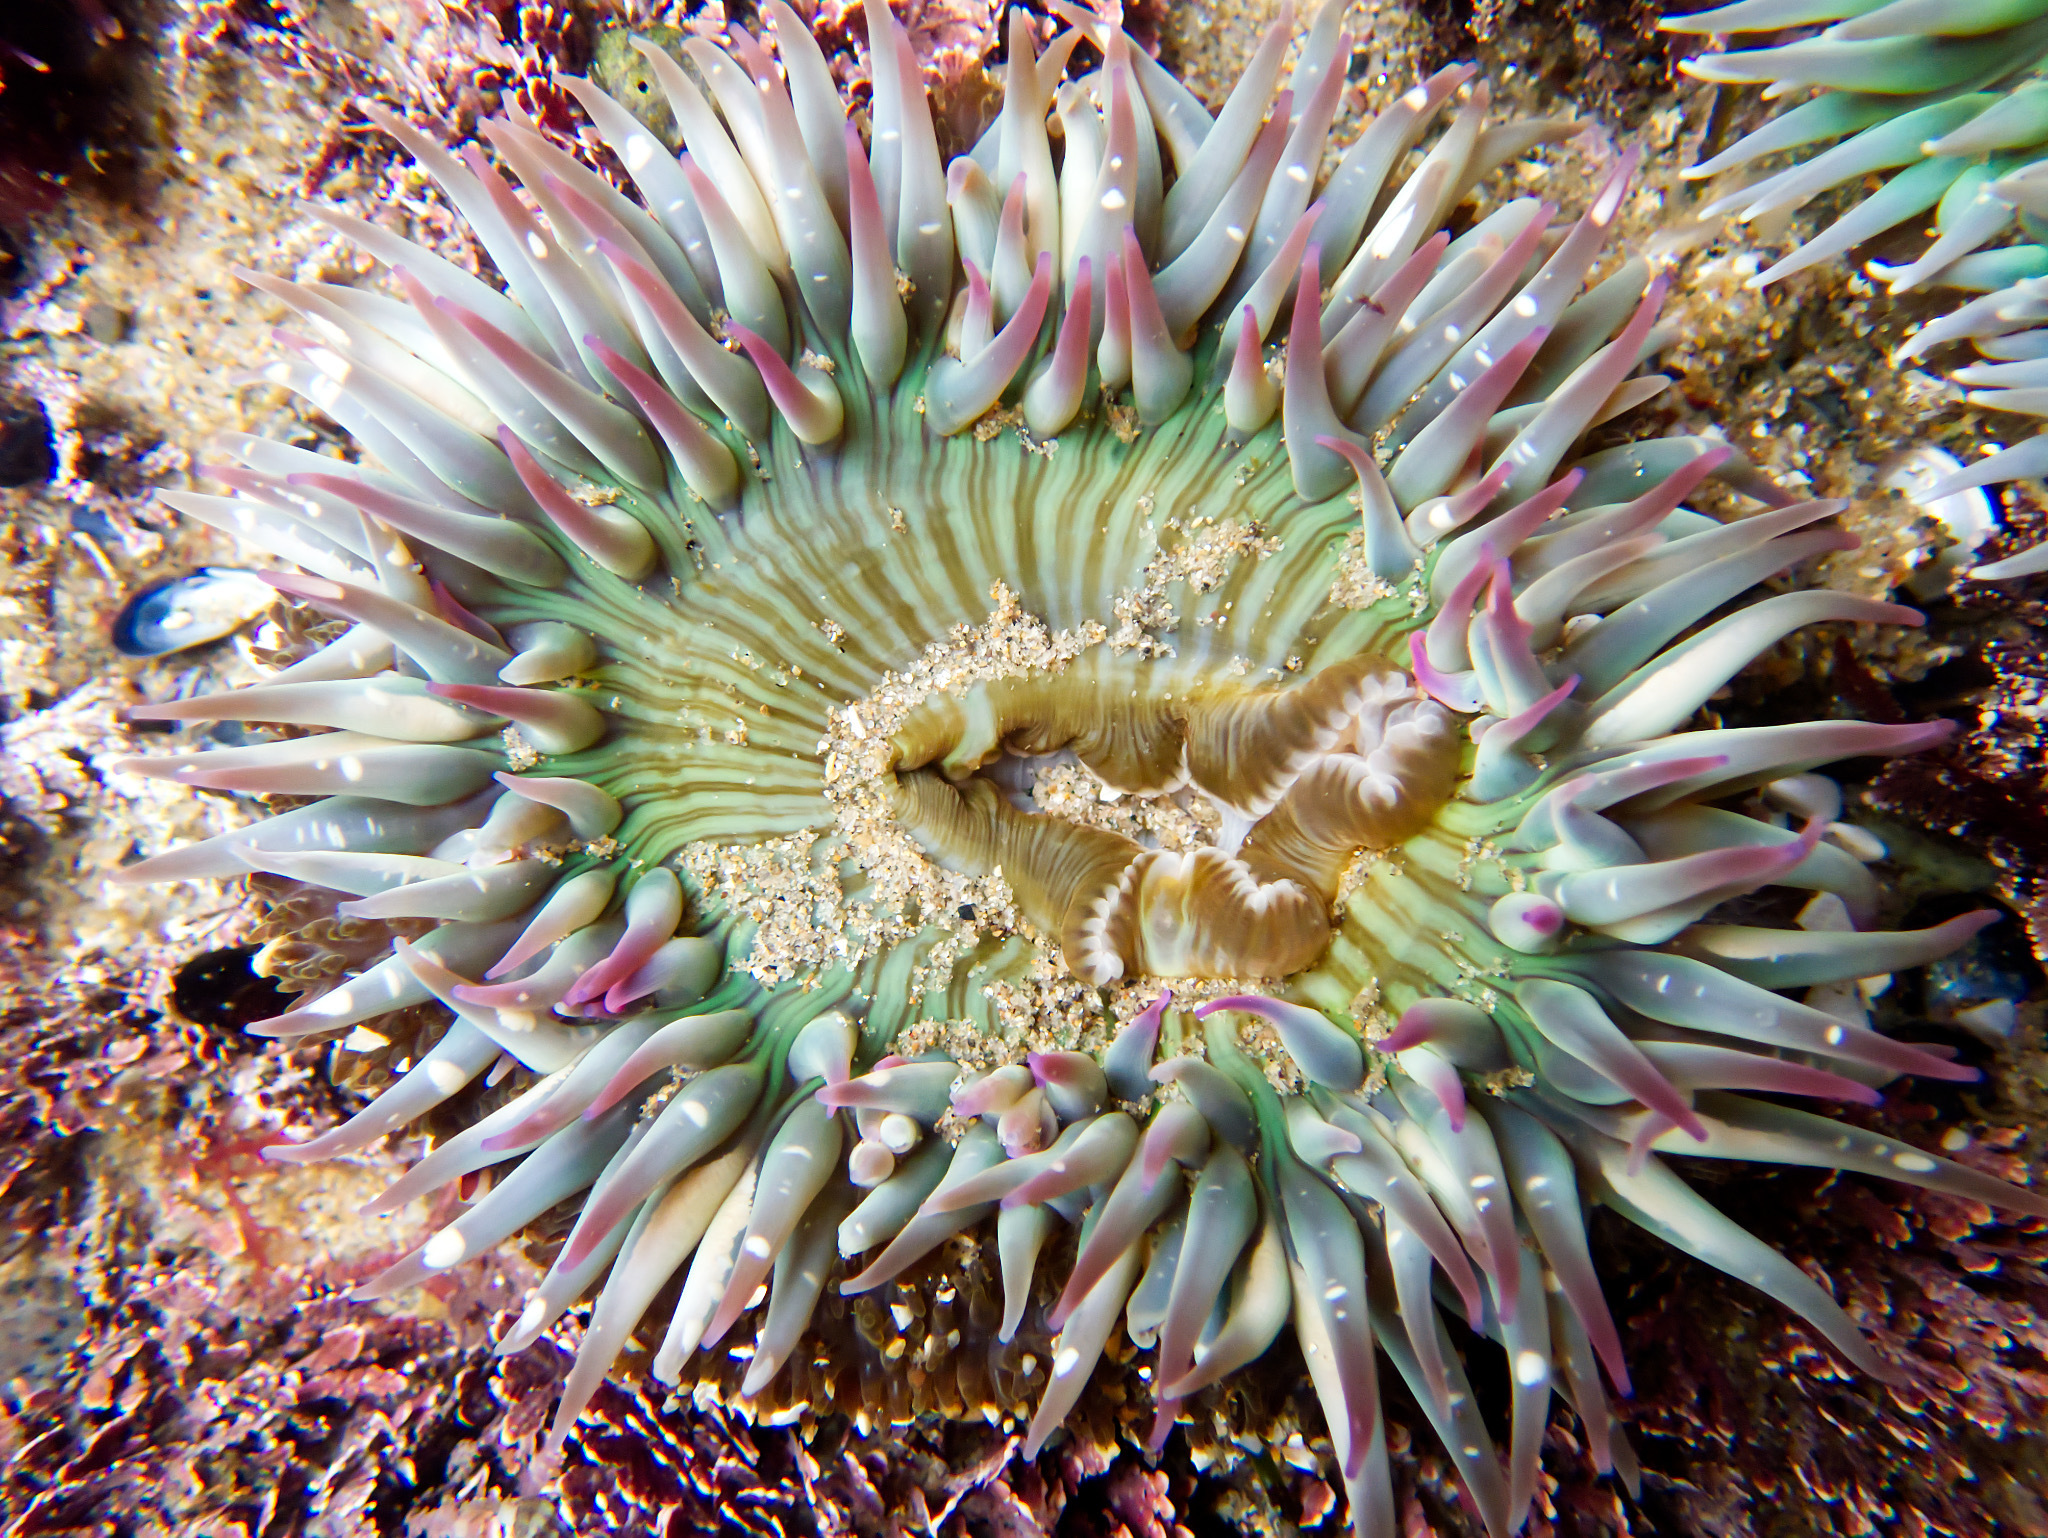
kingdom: Animalia
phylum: Cnidaria
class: Anthozoa
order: Actiniaria
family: Actiniidae
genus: Anthopleura
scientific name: Anthopleura sola
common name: Sun anemone
